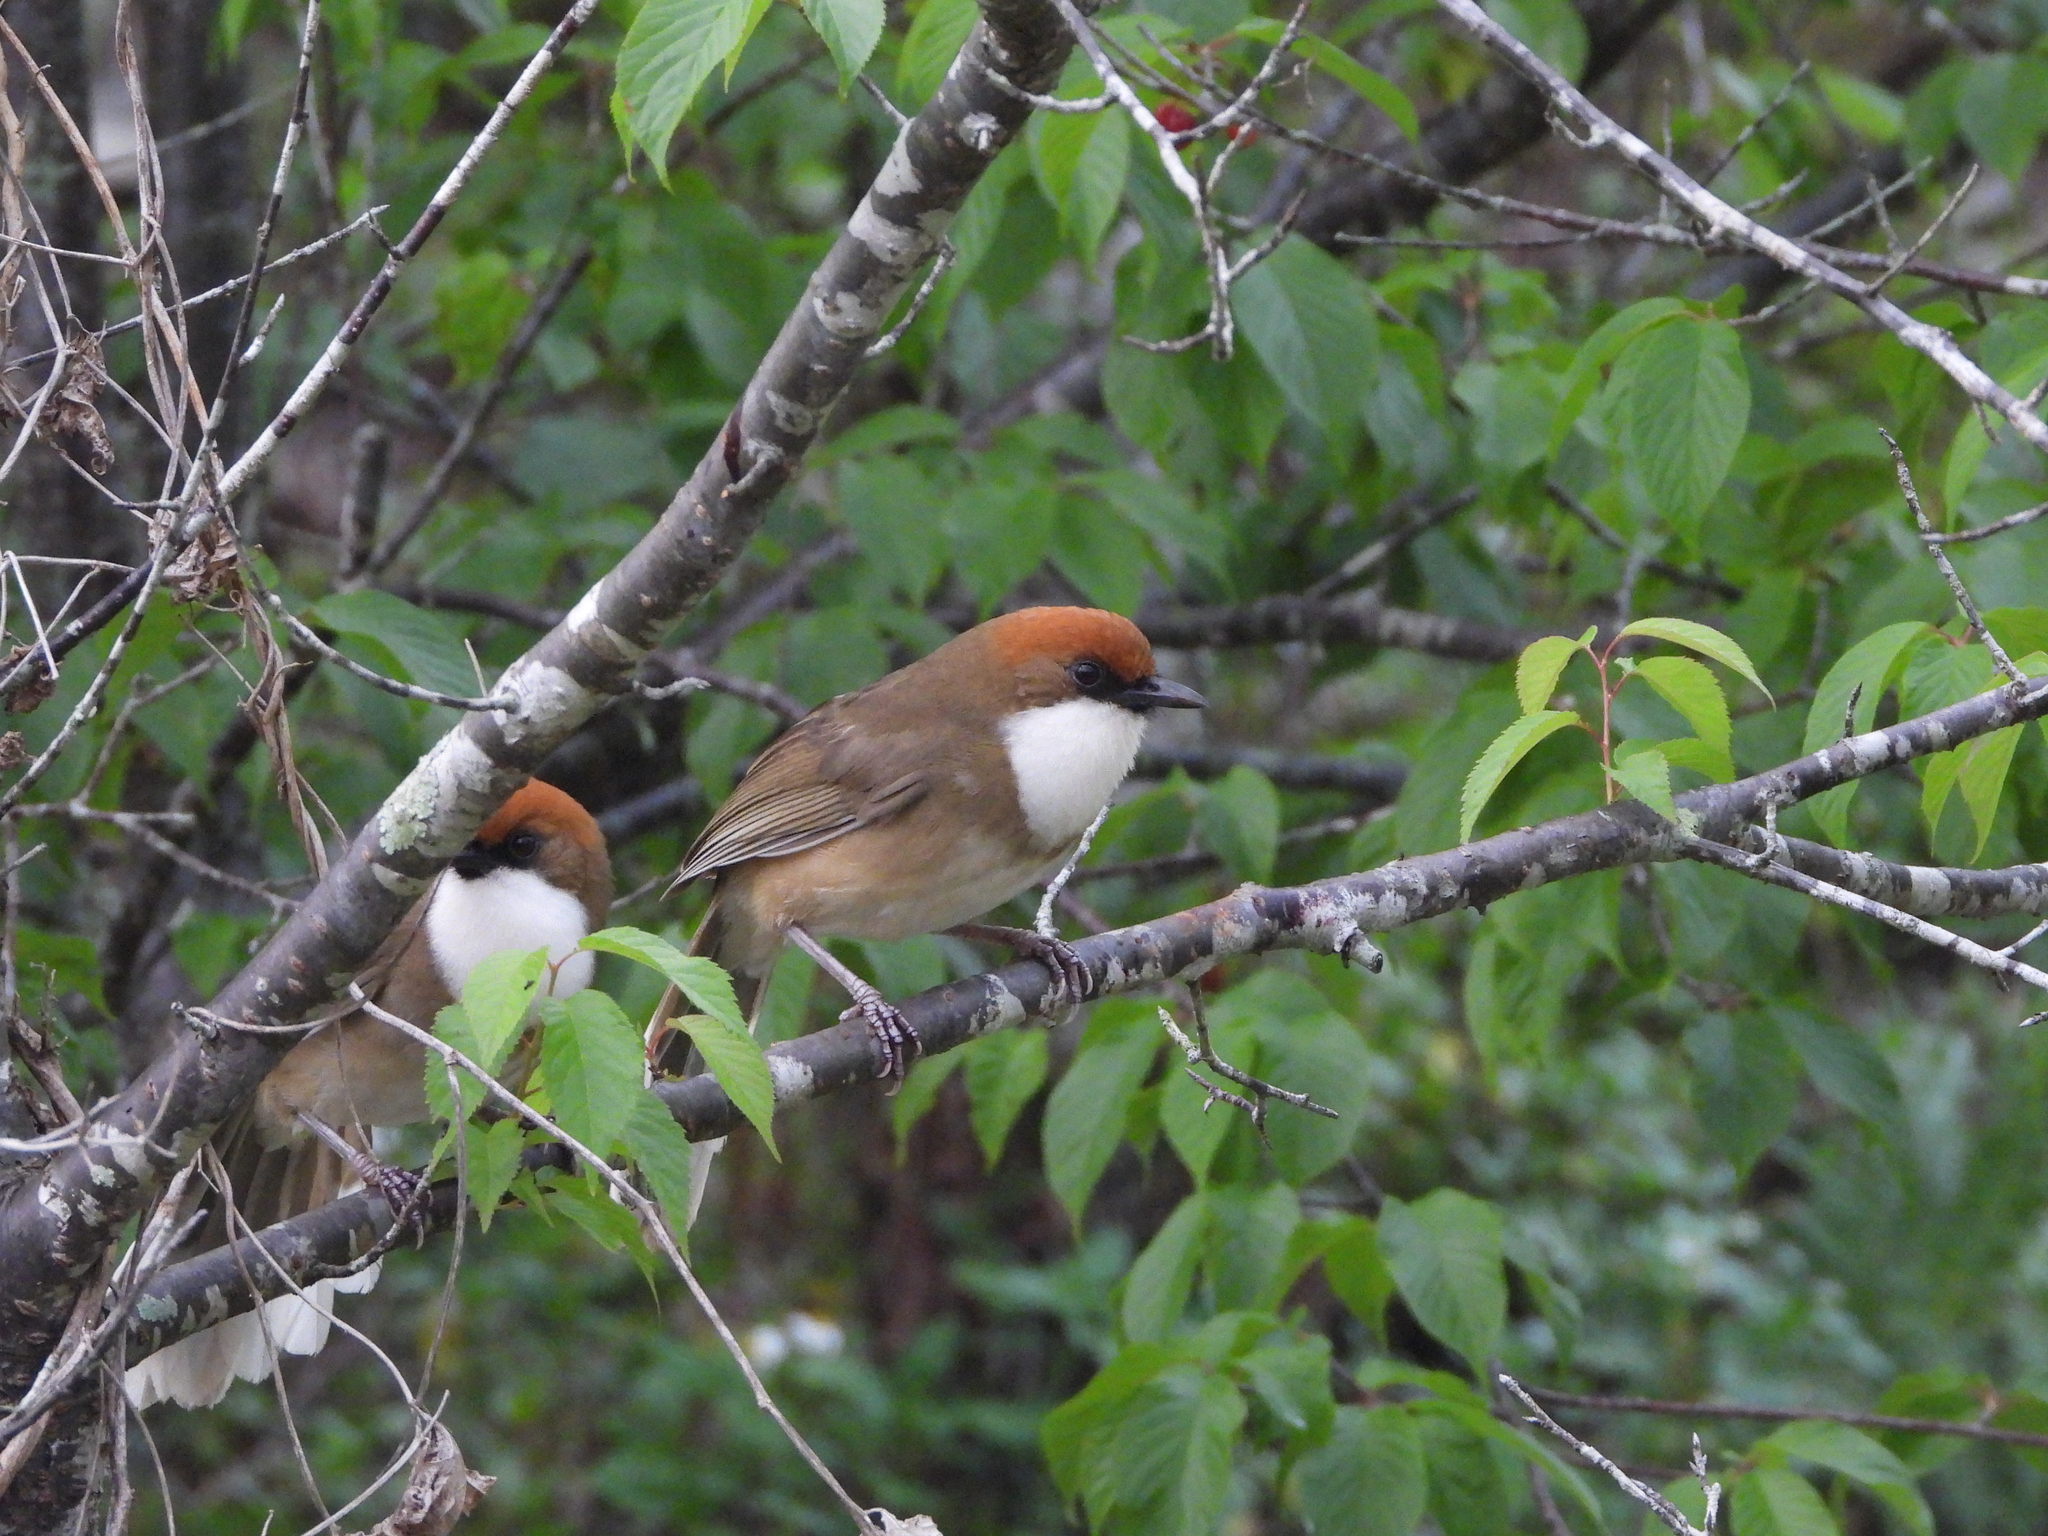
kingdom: Animalia
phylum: Chordata
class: Aves
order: Passeriformes
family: Leiothrichidae
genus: Garrulax
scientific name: Garrulax ruficeps
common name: Rufous-crowned laughingthrush
